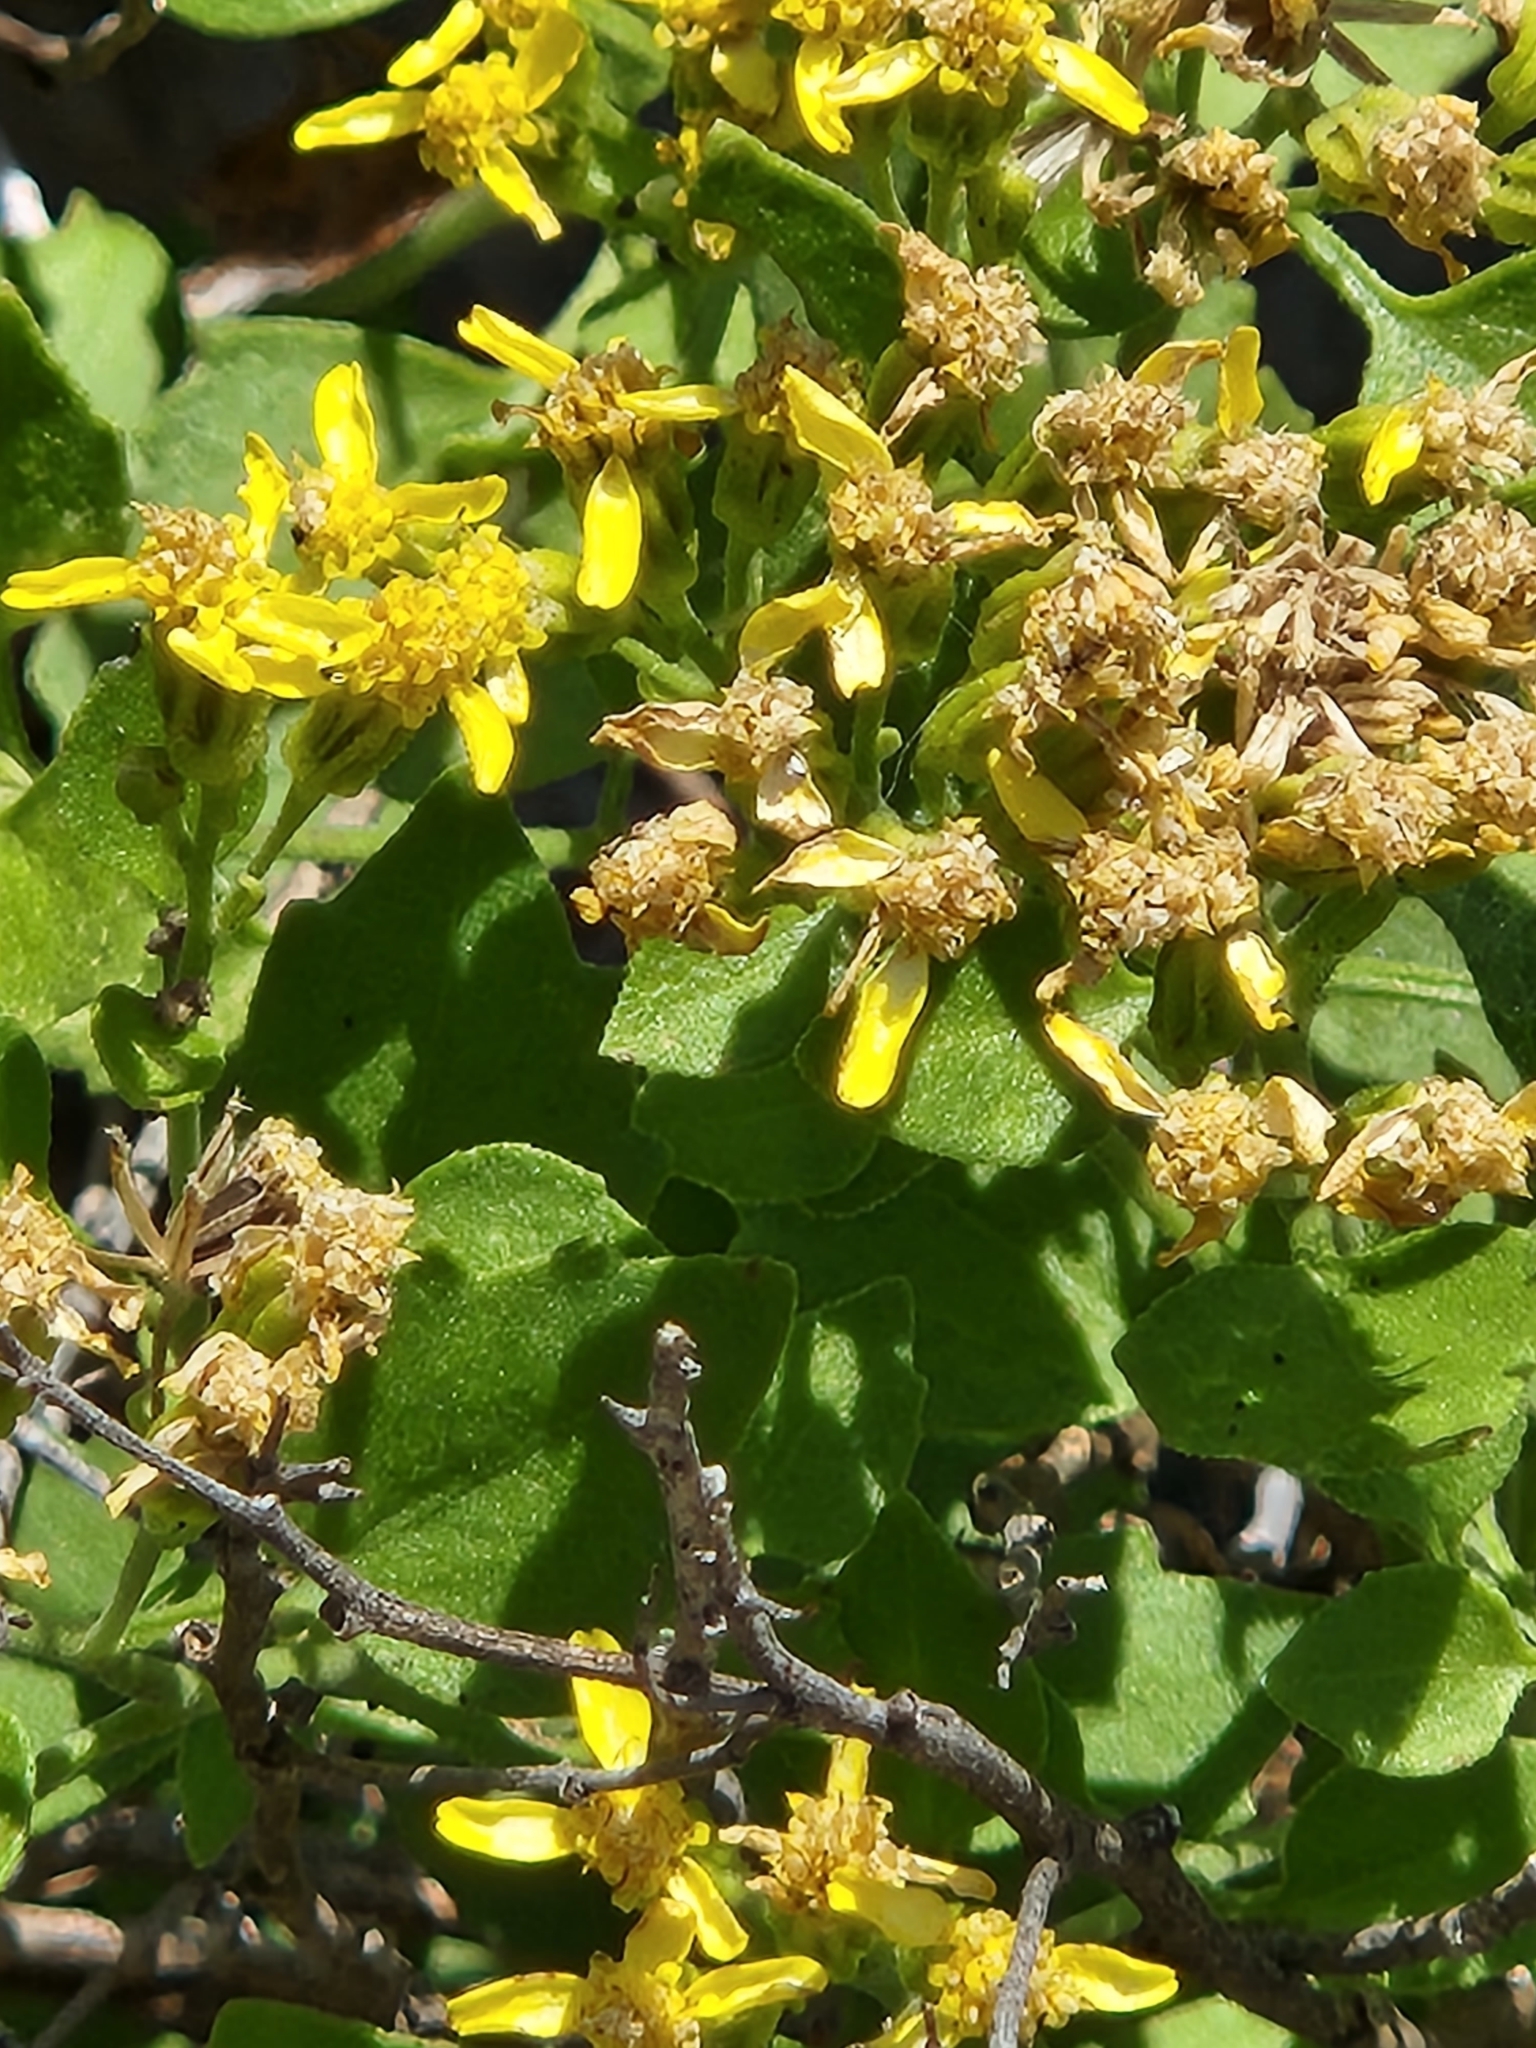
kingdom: Plantae
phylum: Tracheophyta
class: Magnoliopsida
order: Asterales
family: Asteraceae
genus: Laphamia
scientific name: Laphamia lindheimeri
